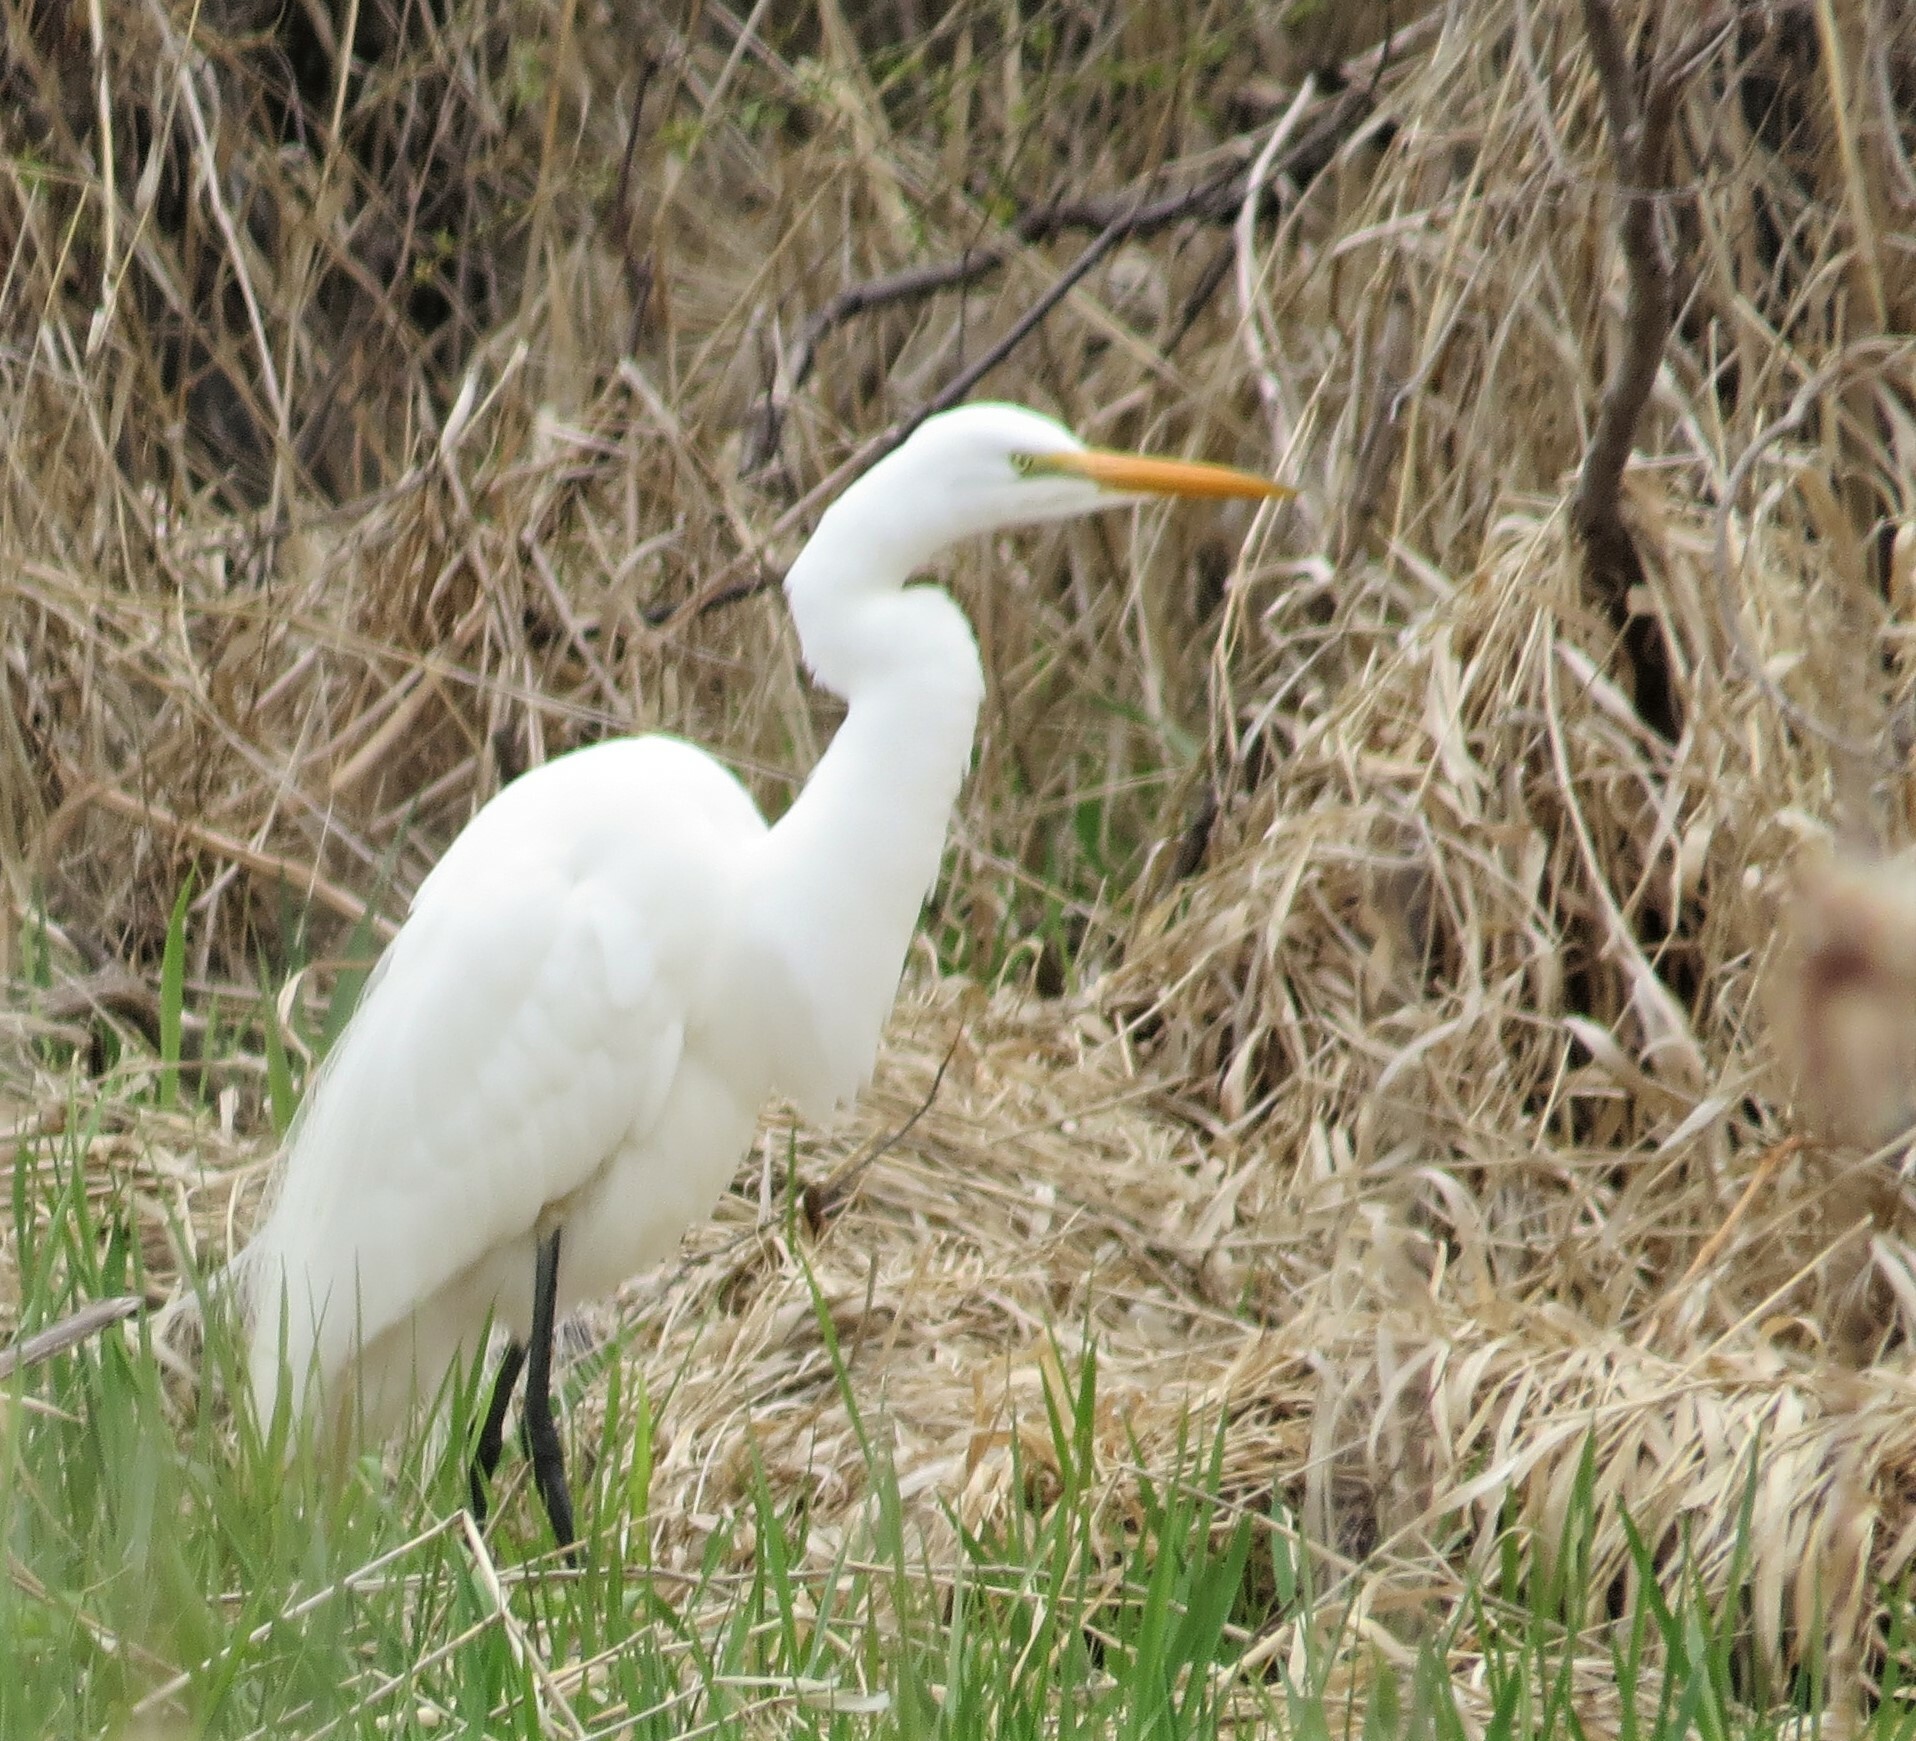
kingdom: Animalia
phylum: Chordata
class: Aves
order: Pelecaniformes
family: Ardeidae
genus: Ardea
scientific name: Ardea alba
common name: Great egret
